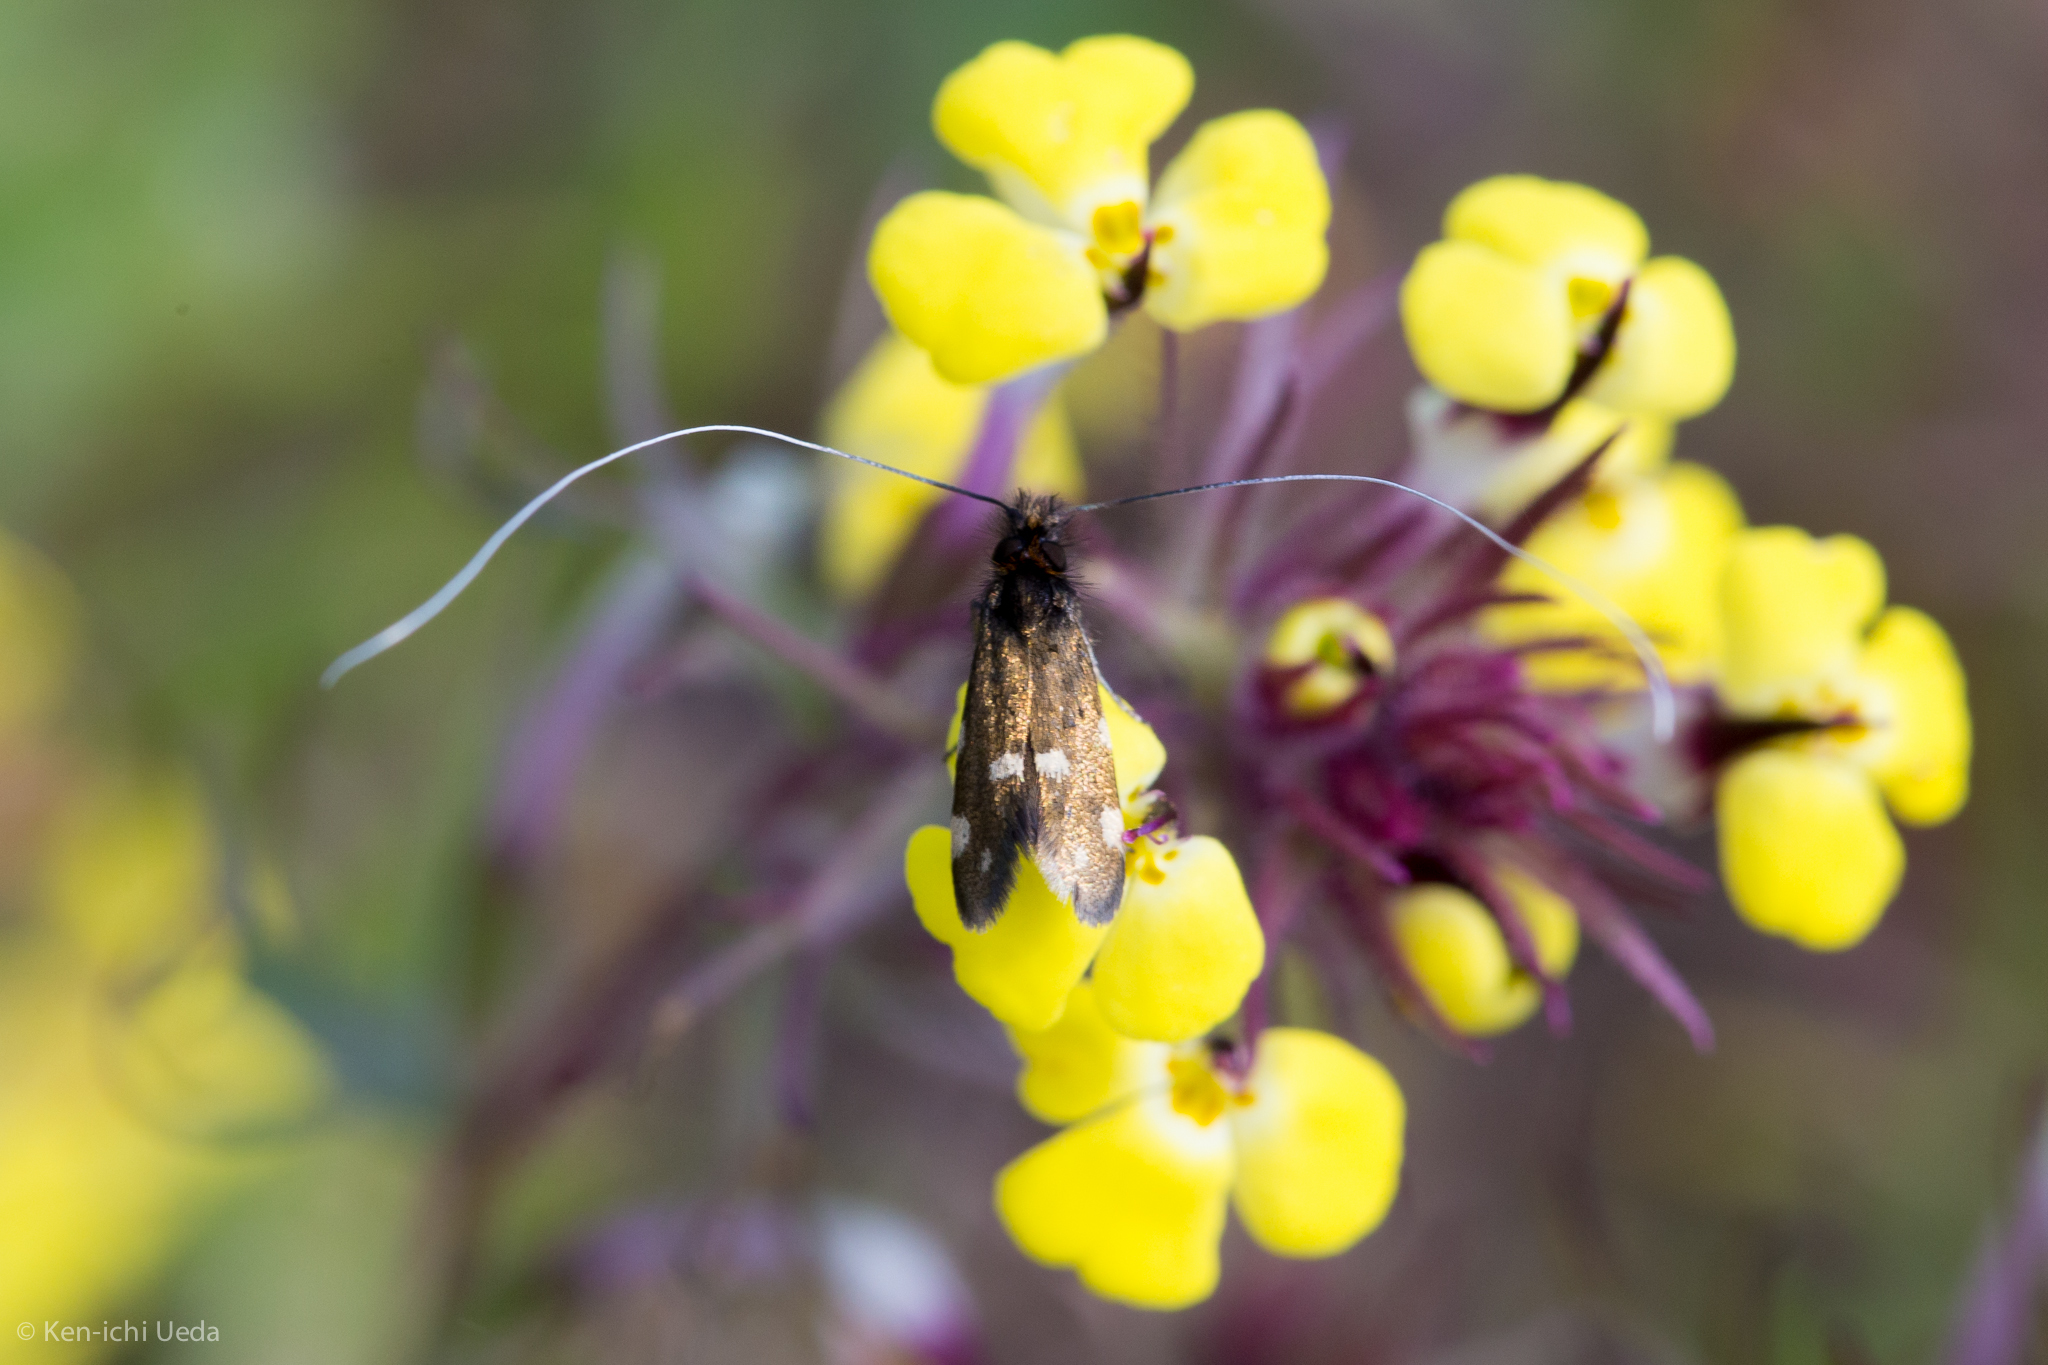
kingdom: Animalia
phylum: Arthropoda
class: Insecta
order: Lepidoptera
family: Adelidae
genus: Adela
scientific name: Adela flammeusella
